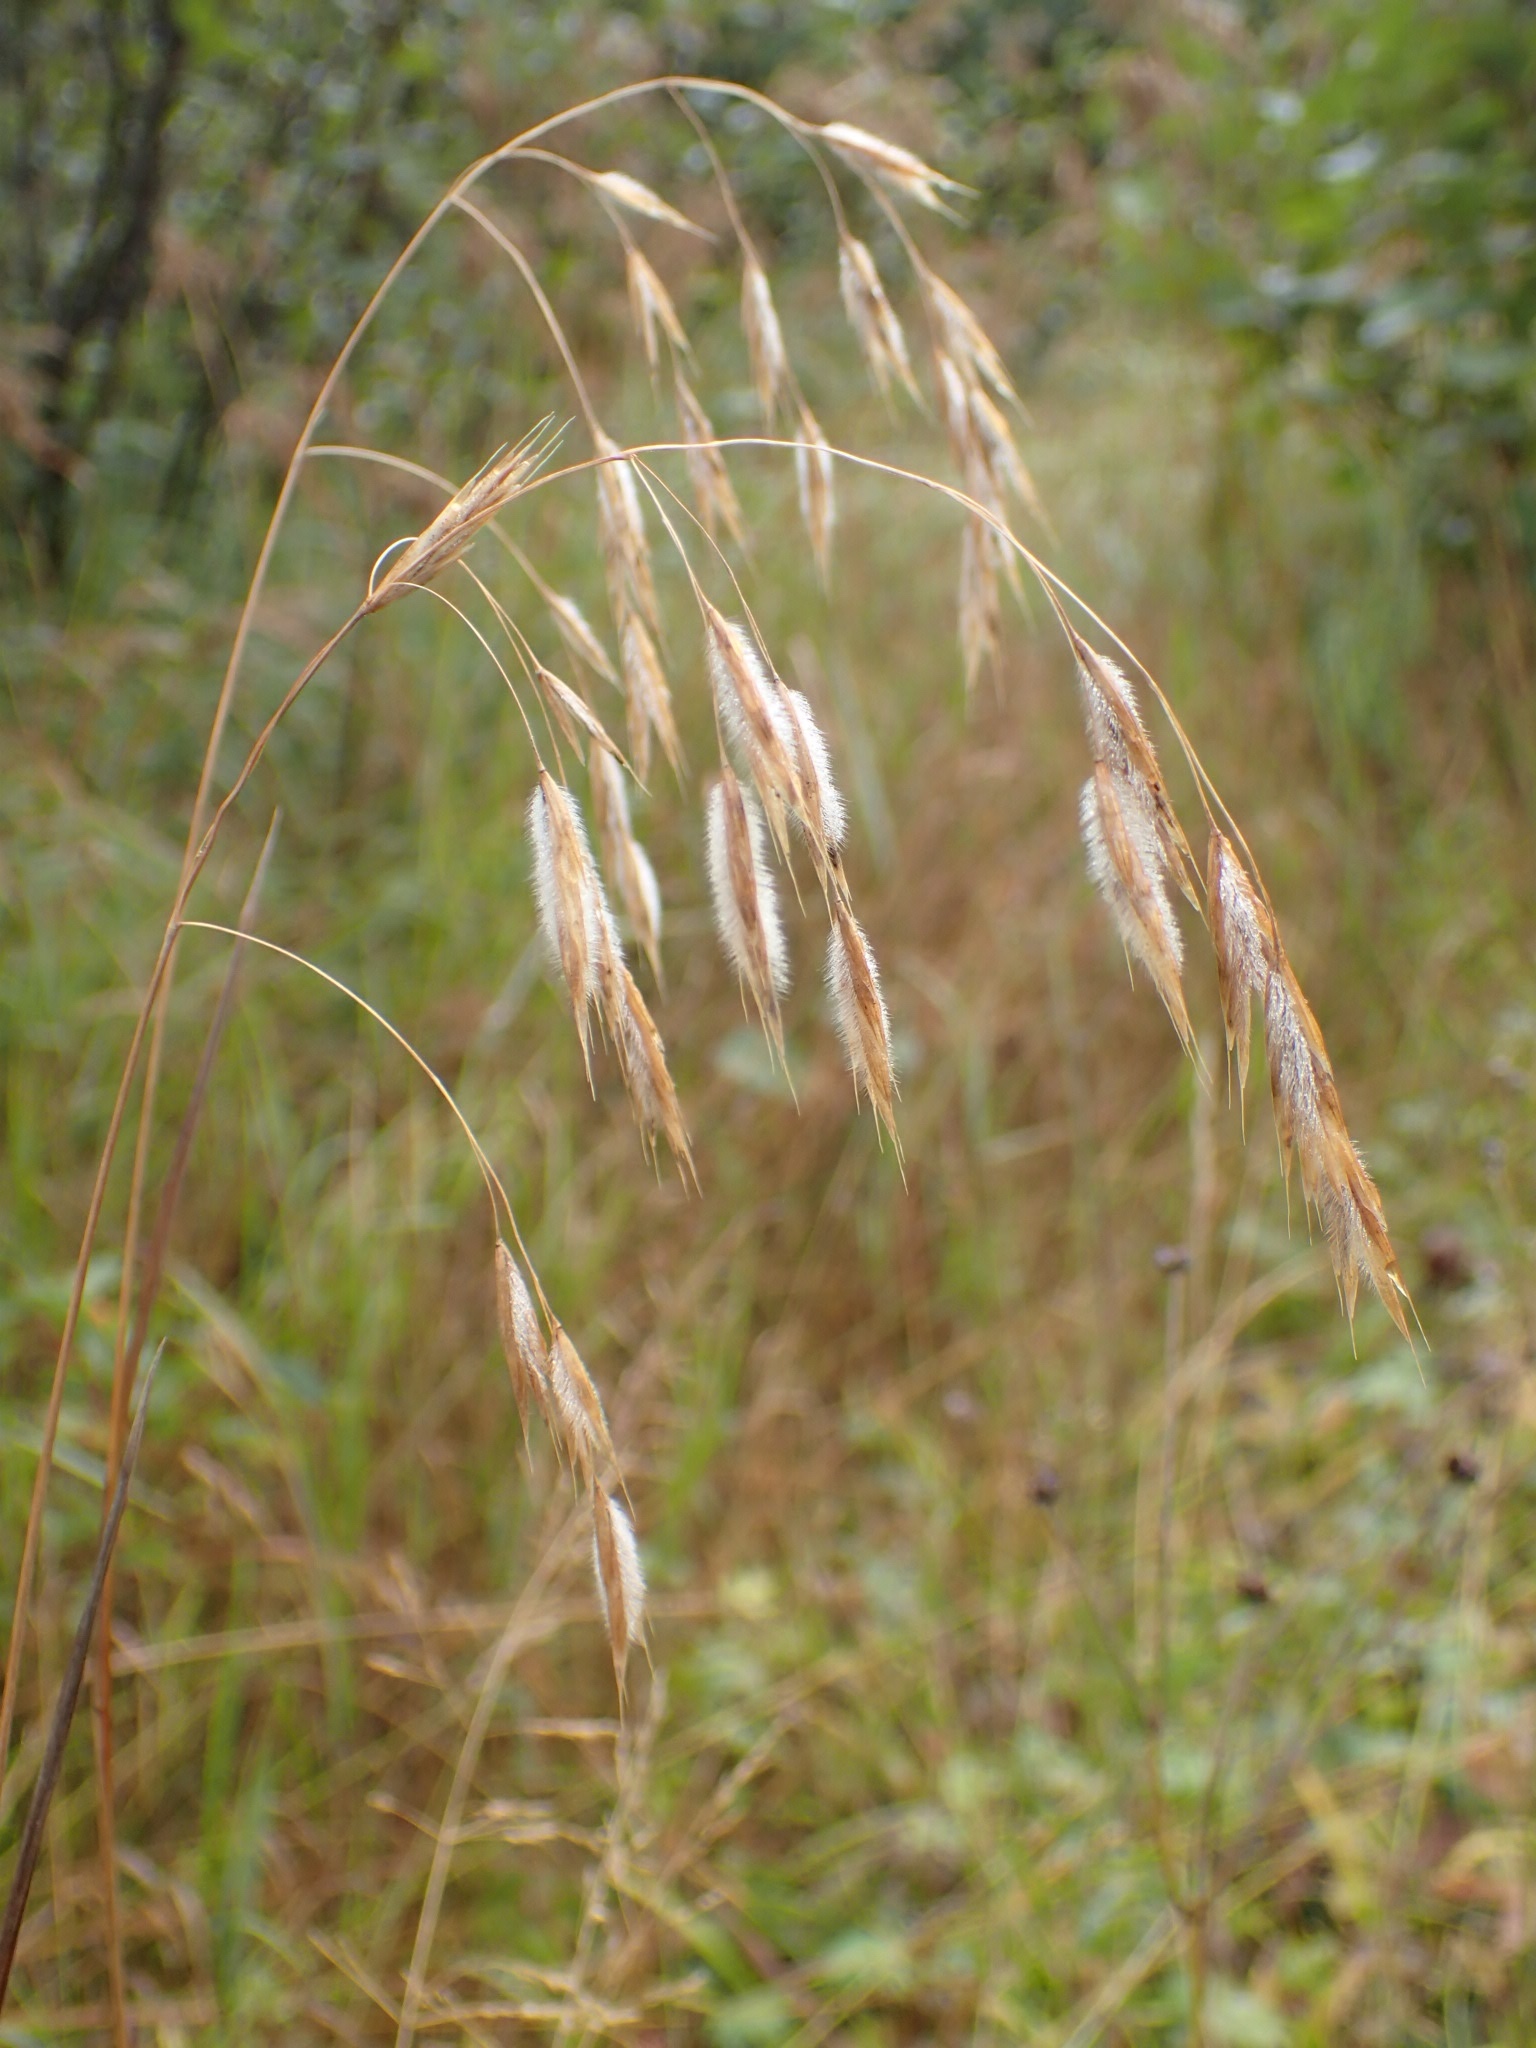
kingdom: Plantae
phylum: Tracheophyta
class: Liliopsida
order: Poales
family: Poaceae
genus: Bromus
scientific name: Bromus ciliatus
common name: Fringe brome
